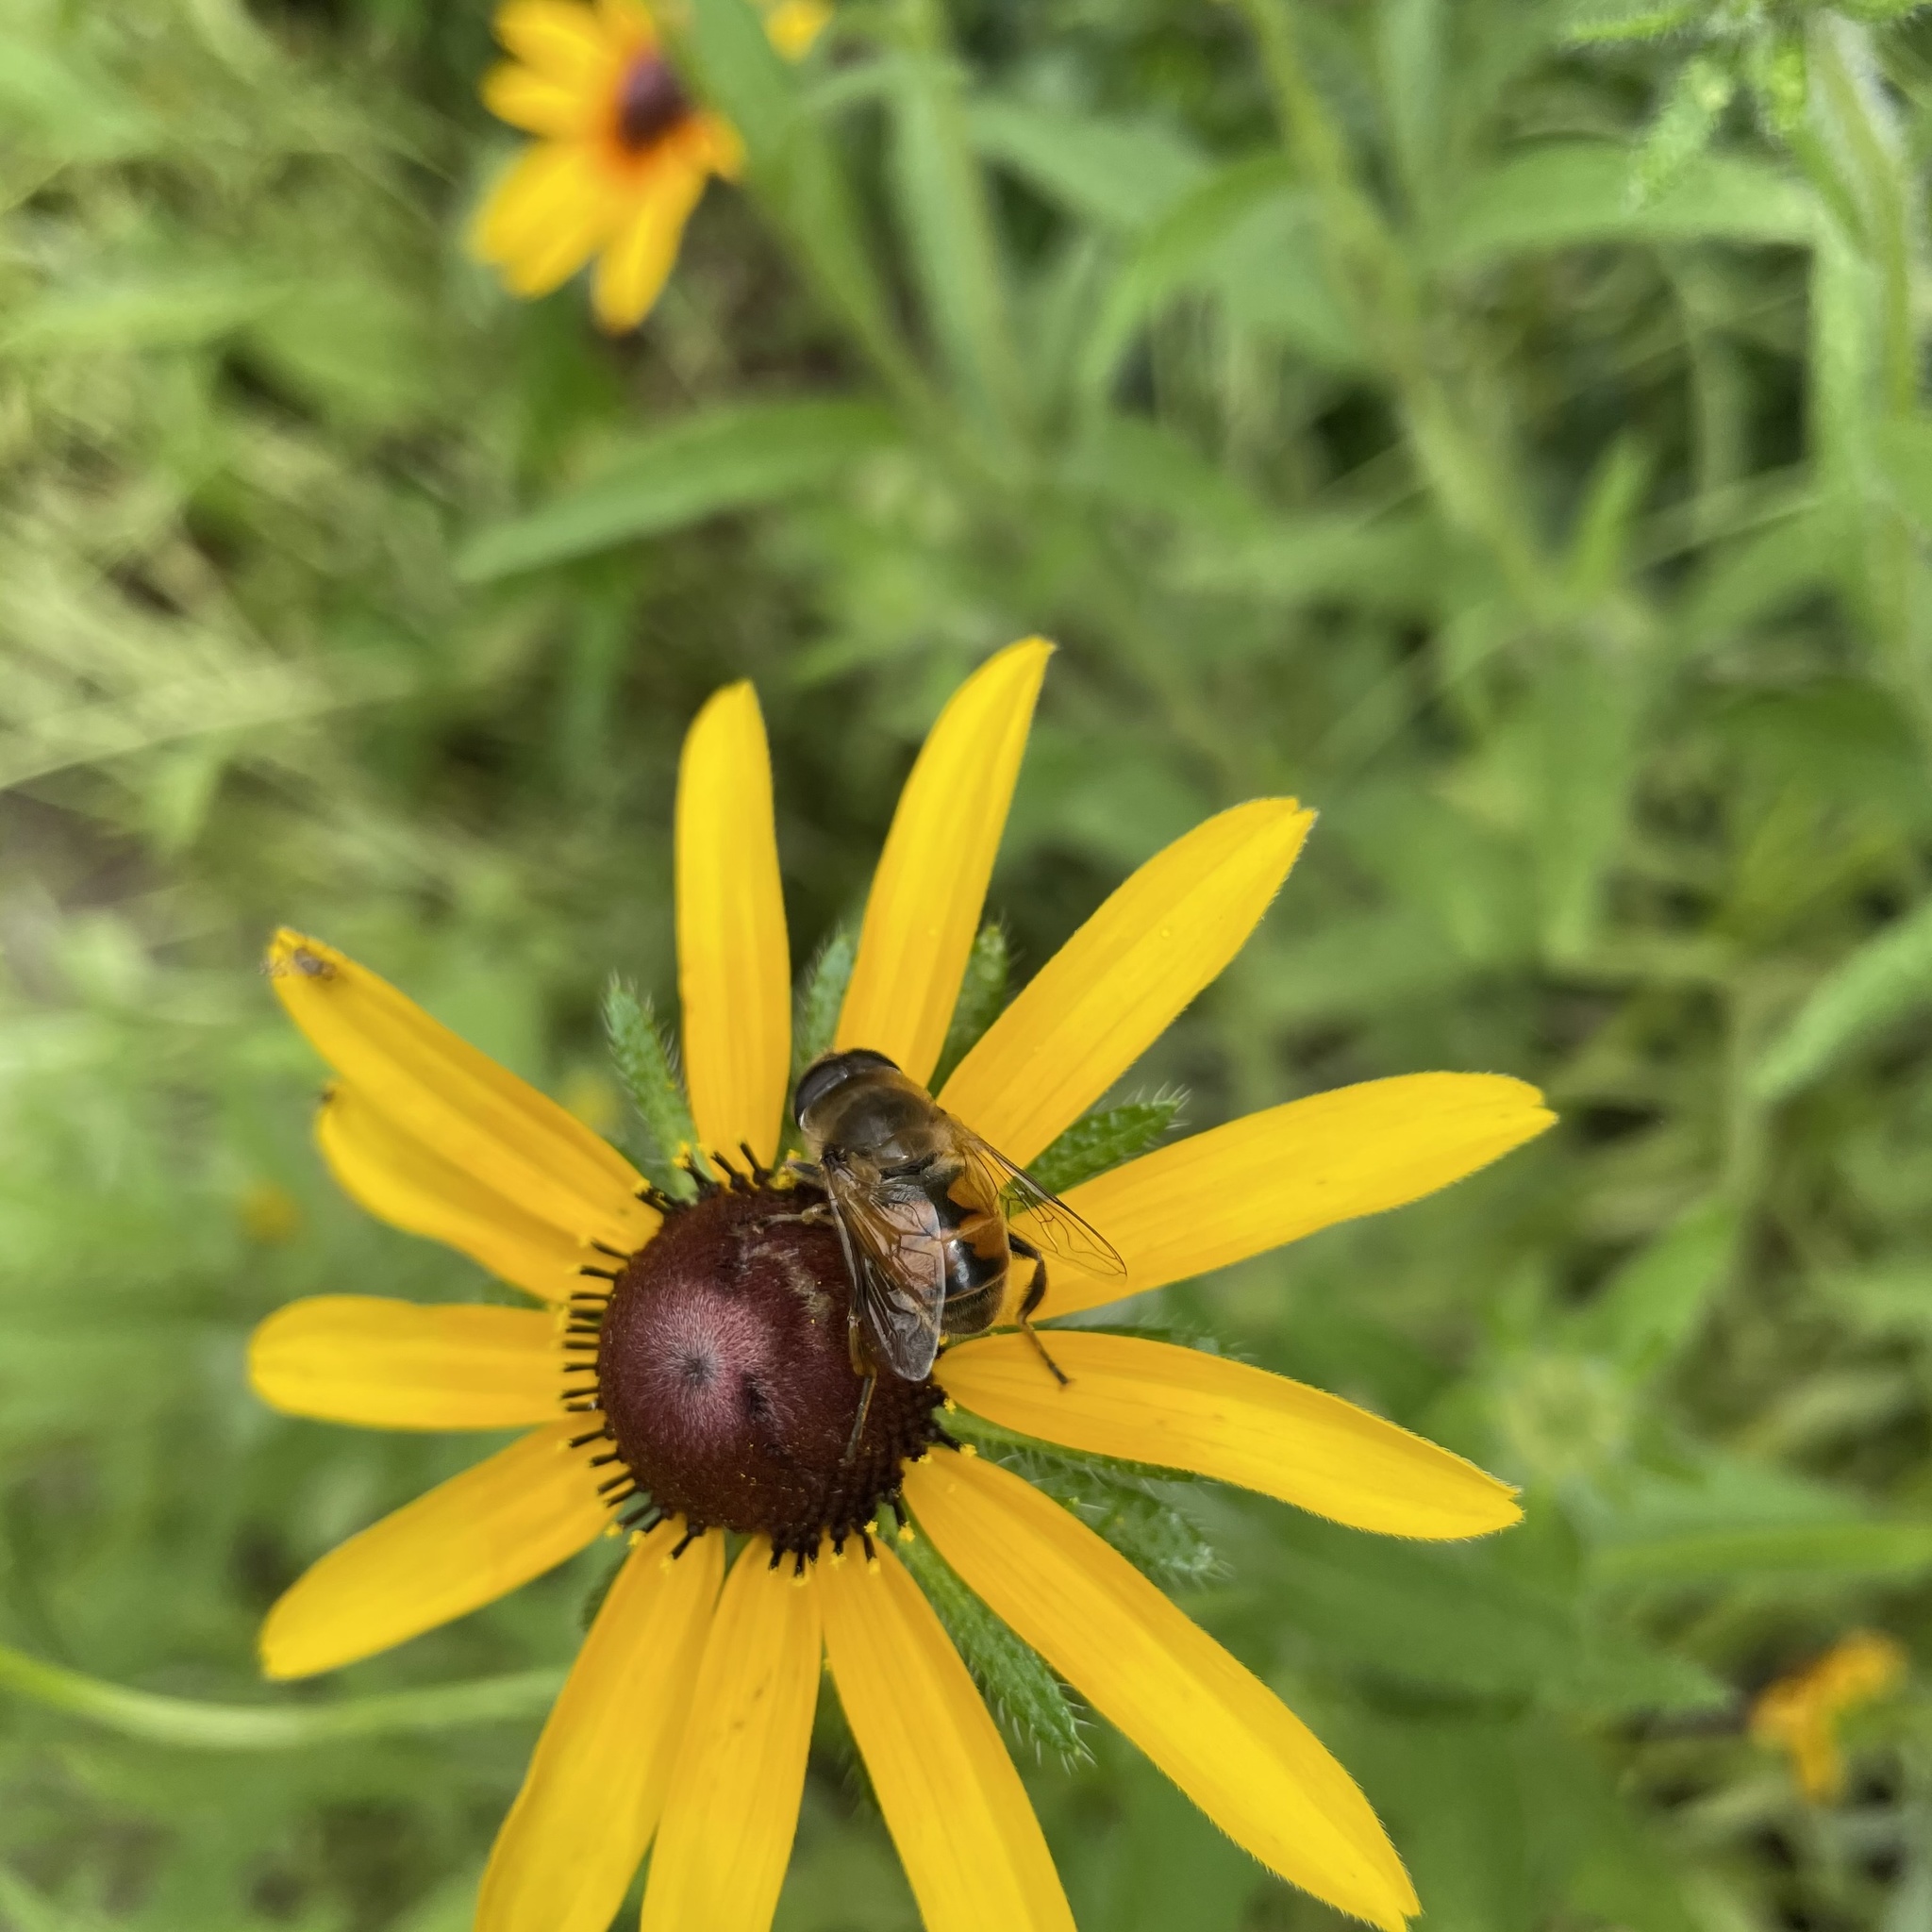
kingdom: Animalia
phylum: Arthropoda
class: Insecta
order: Diptera
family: Syrphidae
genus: Eristalis
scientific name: Eristalis tenax
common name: Drone fly
